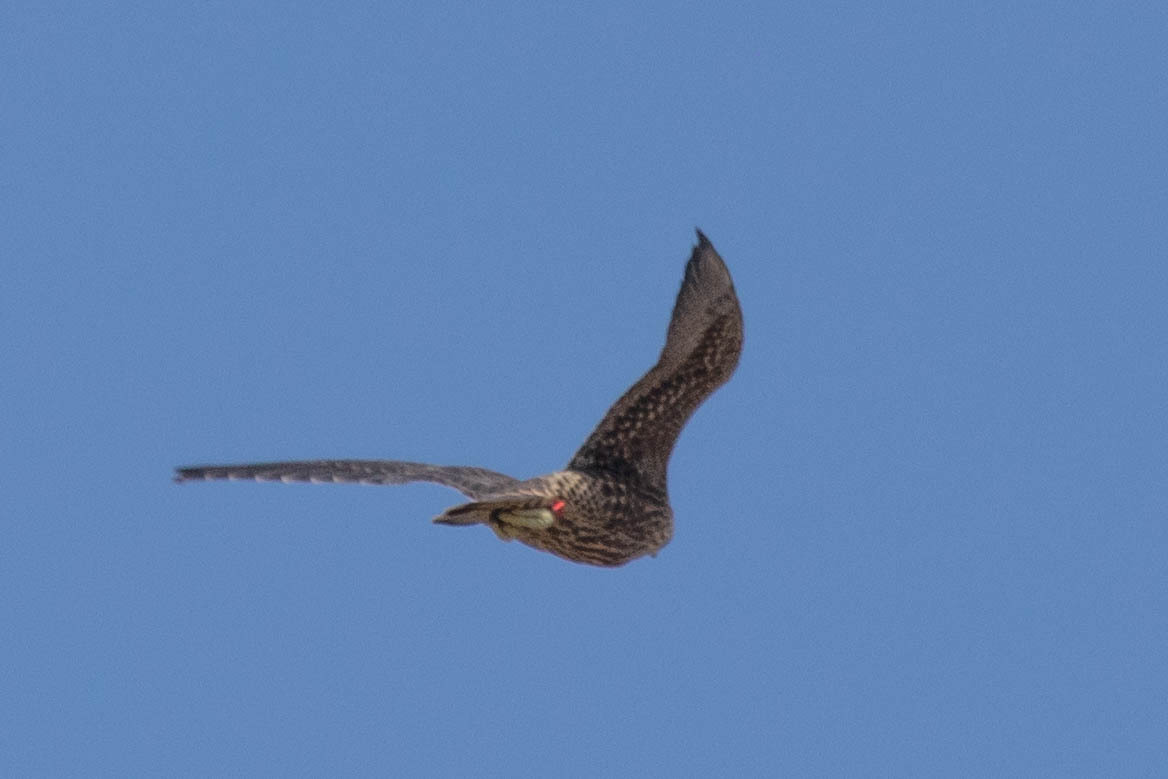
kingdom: Animalia
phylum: Chordata
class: Aves
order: Falconiformes
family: Falconidae
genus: Falco
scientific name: Falco peregrinus
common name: Peregrine falcon
